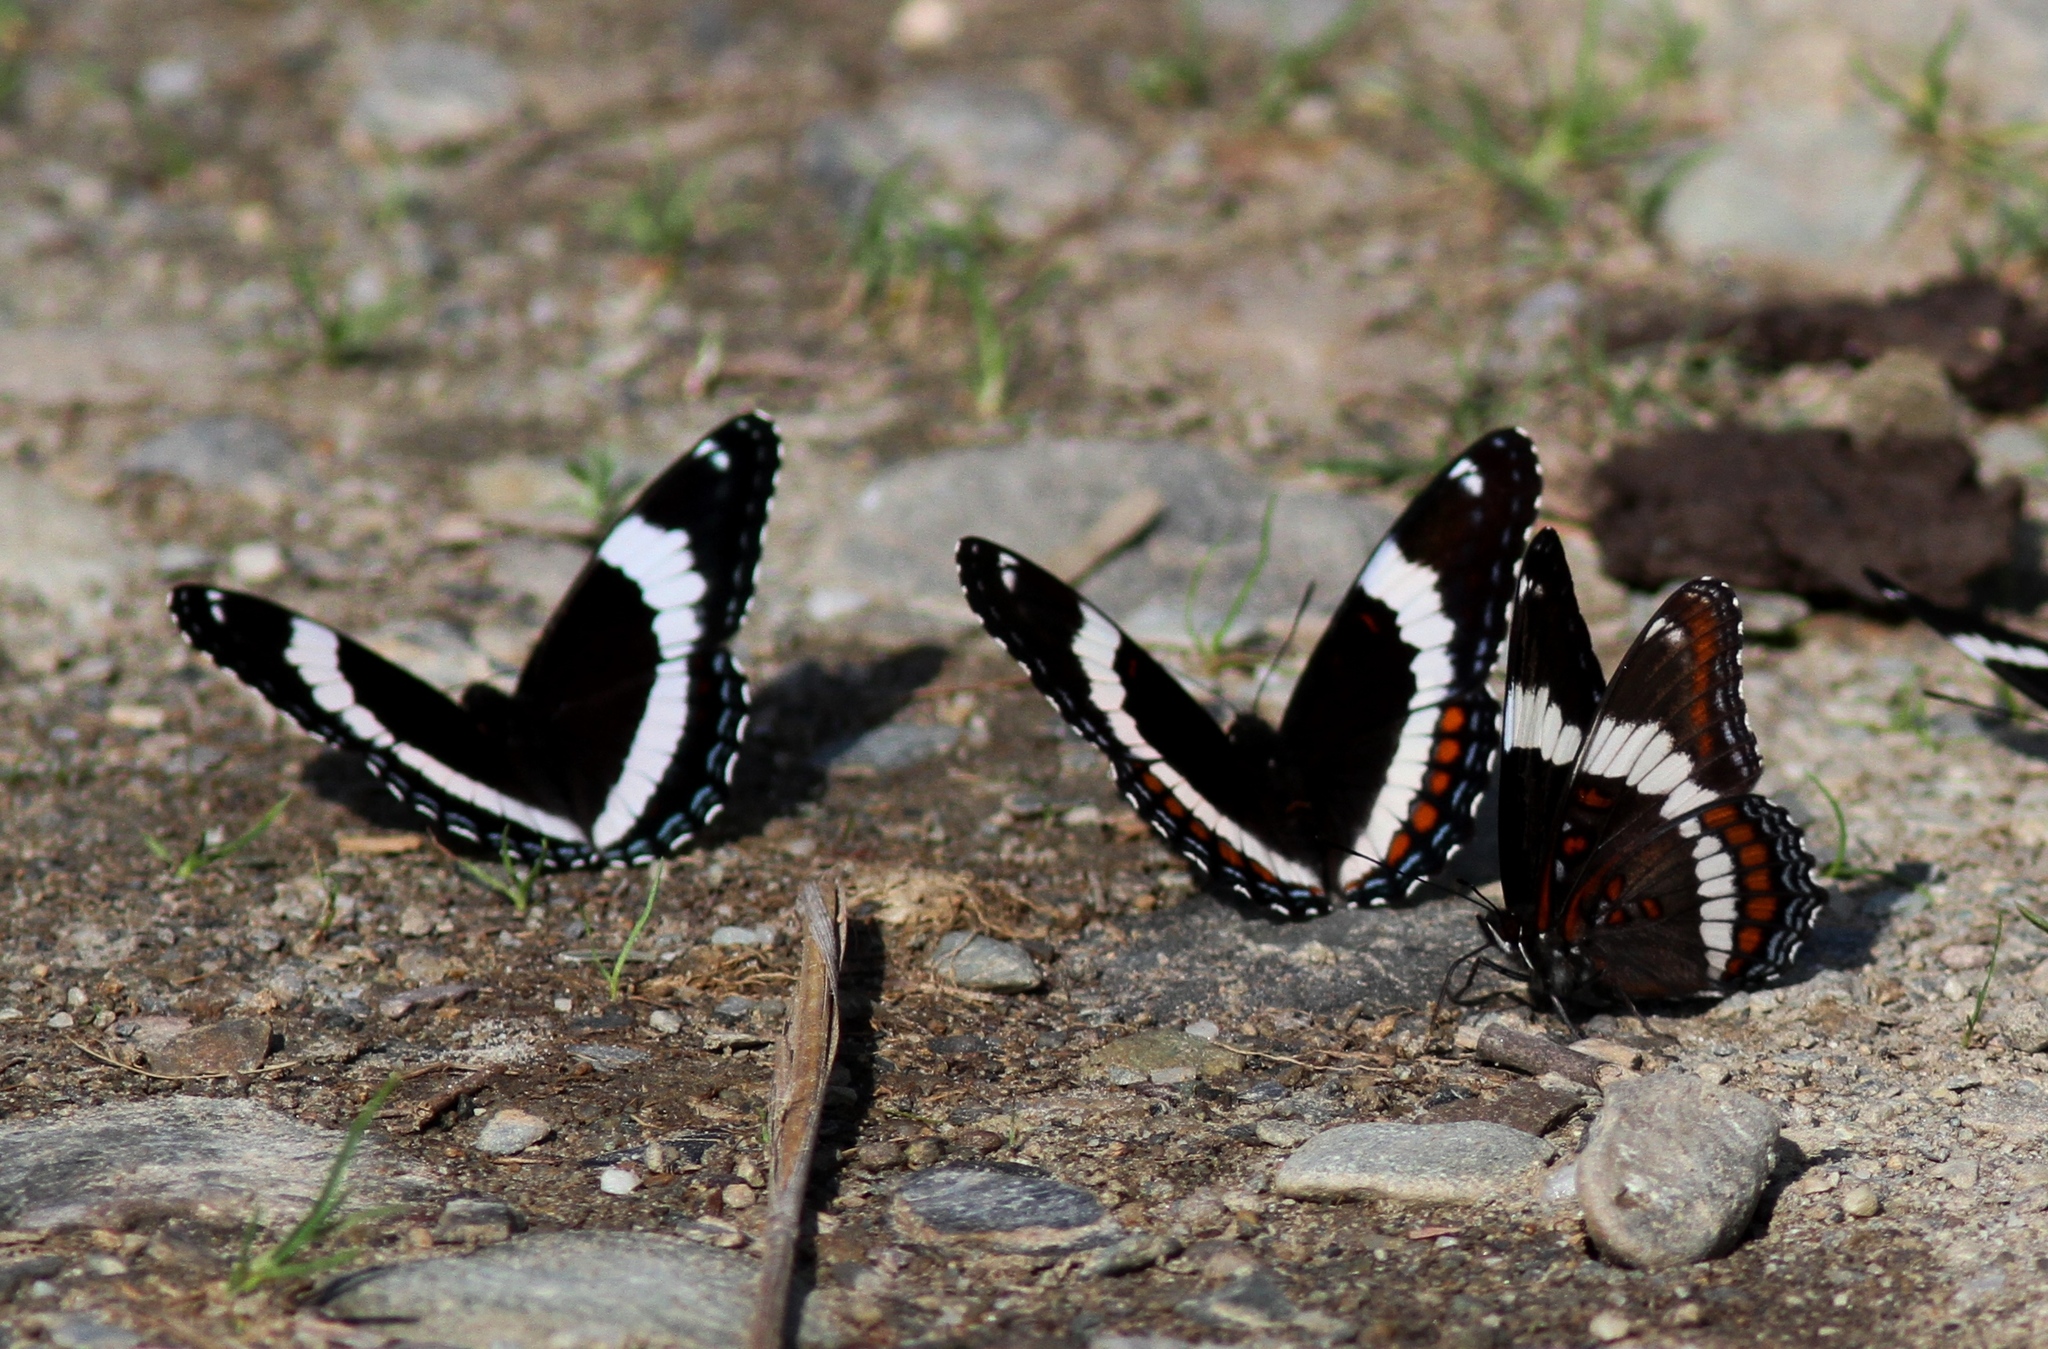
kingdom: Animalia
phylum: Arthropoda
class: Insecta
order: Lepidoptera
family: Nymphalidae
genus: Limenitis
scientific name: Limenitis arthemis
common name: Red-spotted admiral
